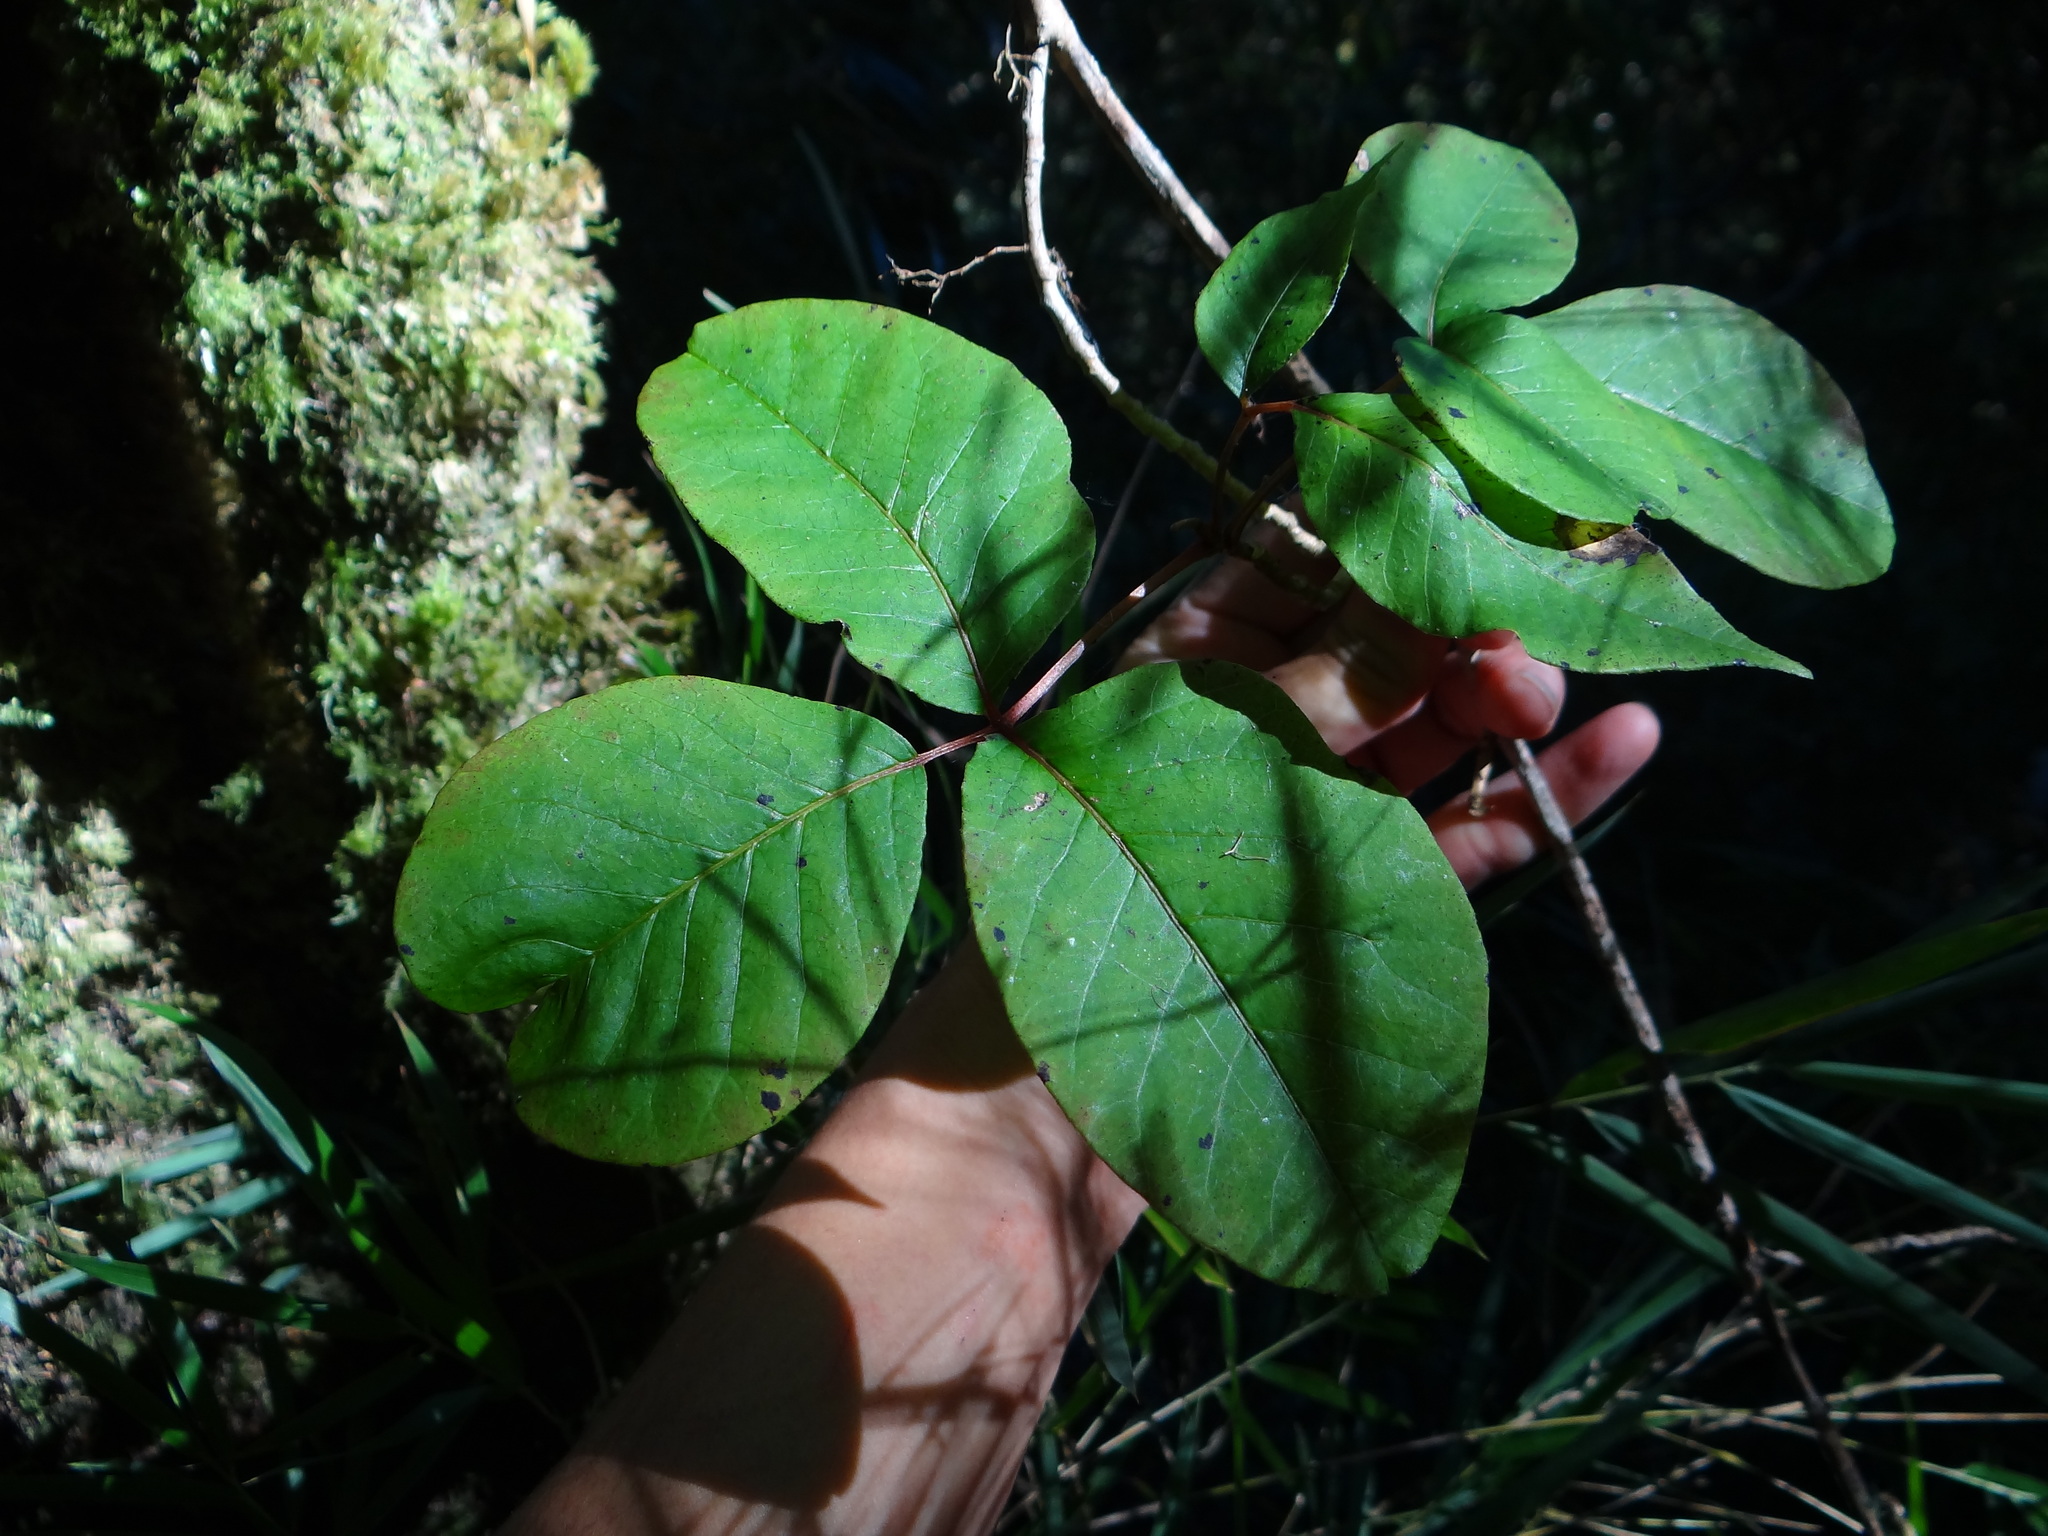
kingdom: Plantae
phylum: Tracheophyta
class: Magnoliopsida
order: Sapindales
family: Anacardiaceae
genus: Toxicodendron
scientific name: Toxicodendron orientale
